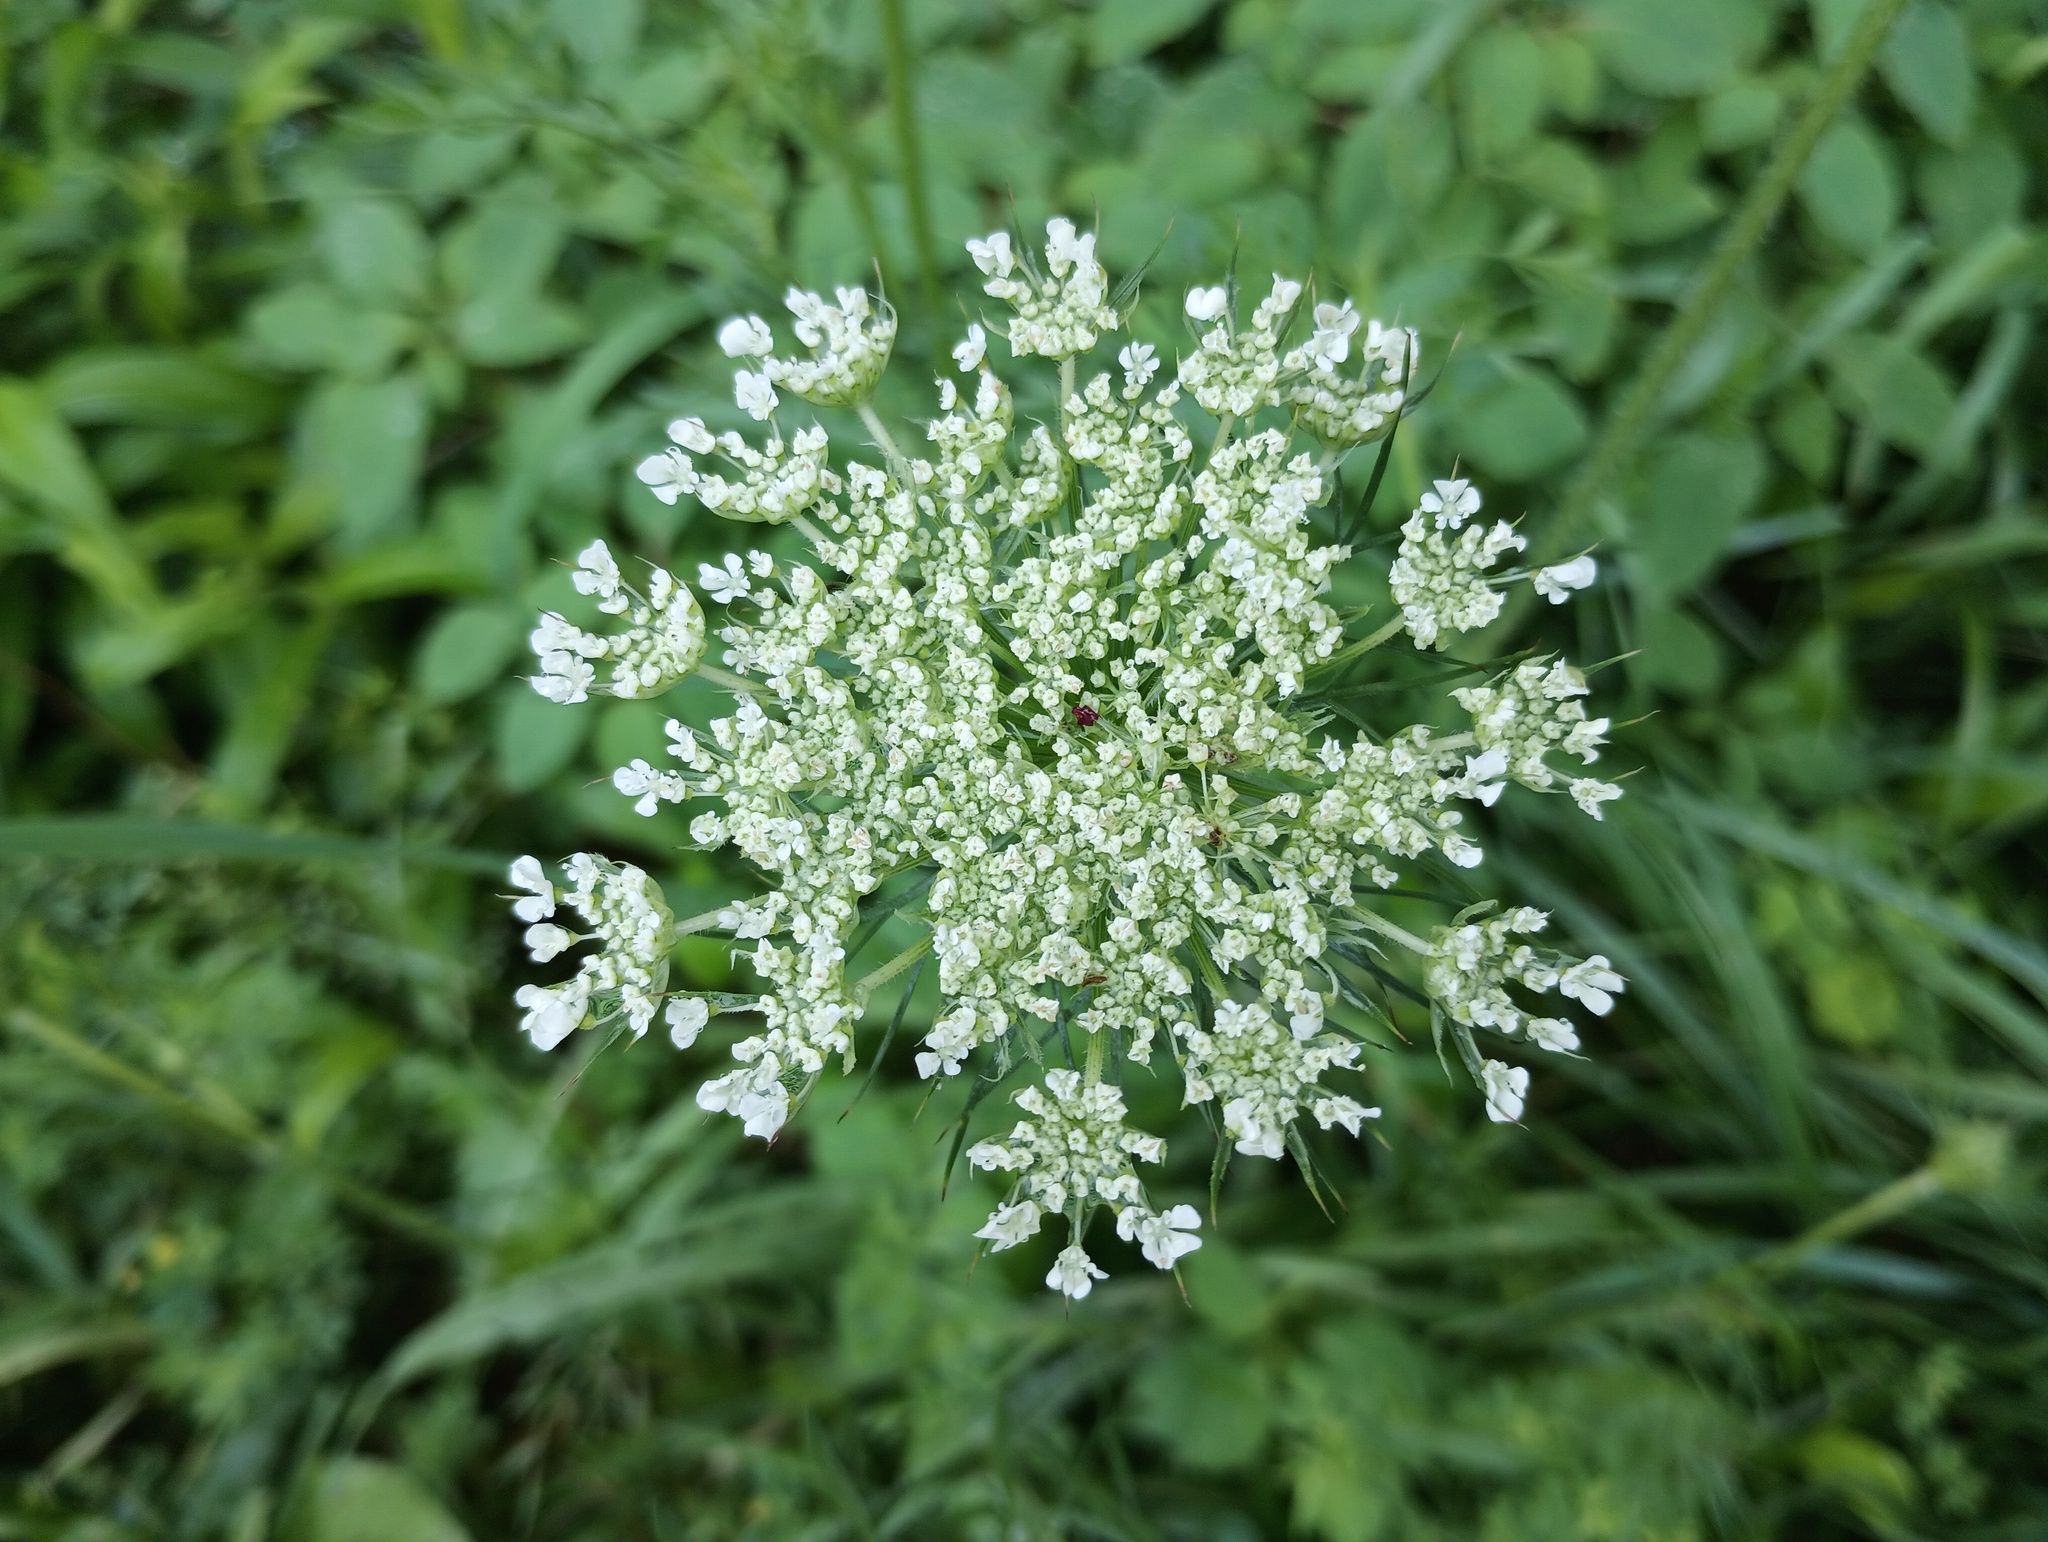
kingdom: Plantae
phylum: Tracheophyta
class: Magnoliopsida
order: Apiales
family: Apiaceae
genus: Daucus
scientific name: Daucus carota
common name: Wild carrot
